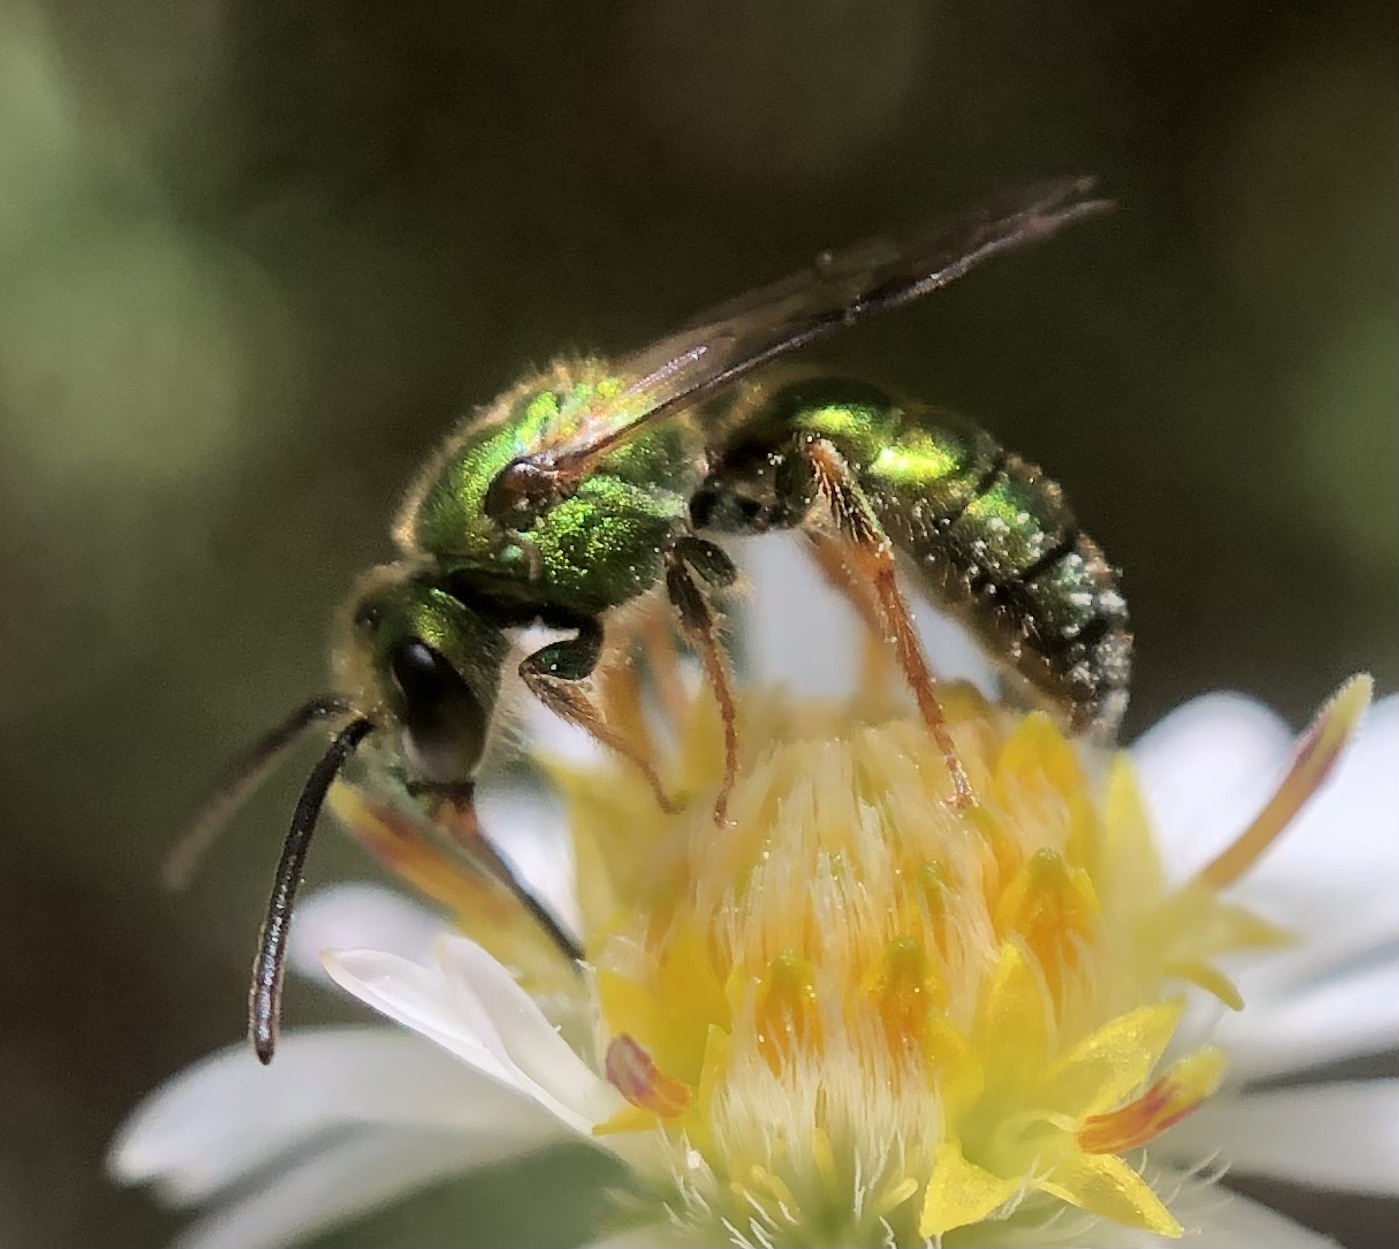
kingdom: Animalia
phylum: Arthropoda
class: Insecta
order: Hymenoptera
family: Halictidae
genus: Augochlora
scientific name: Augochlora pura
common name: Pure green sweat bee
